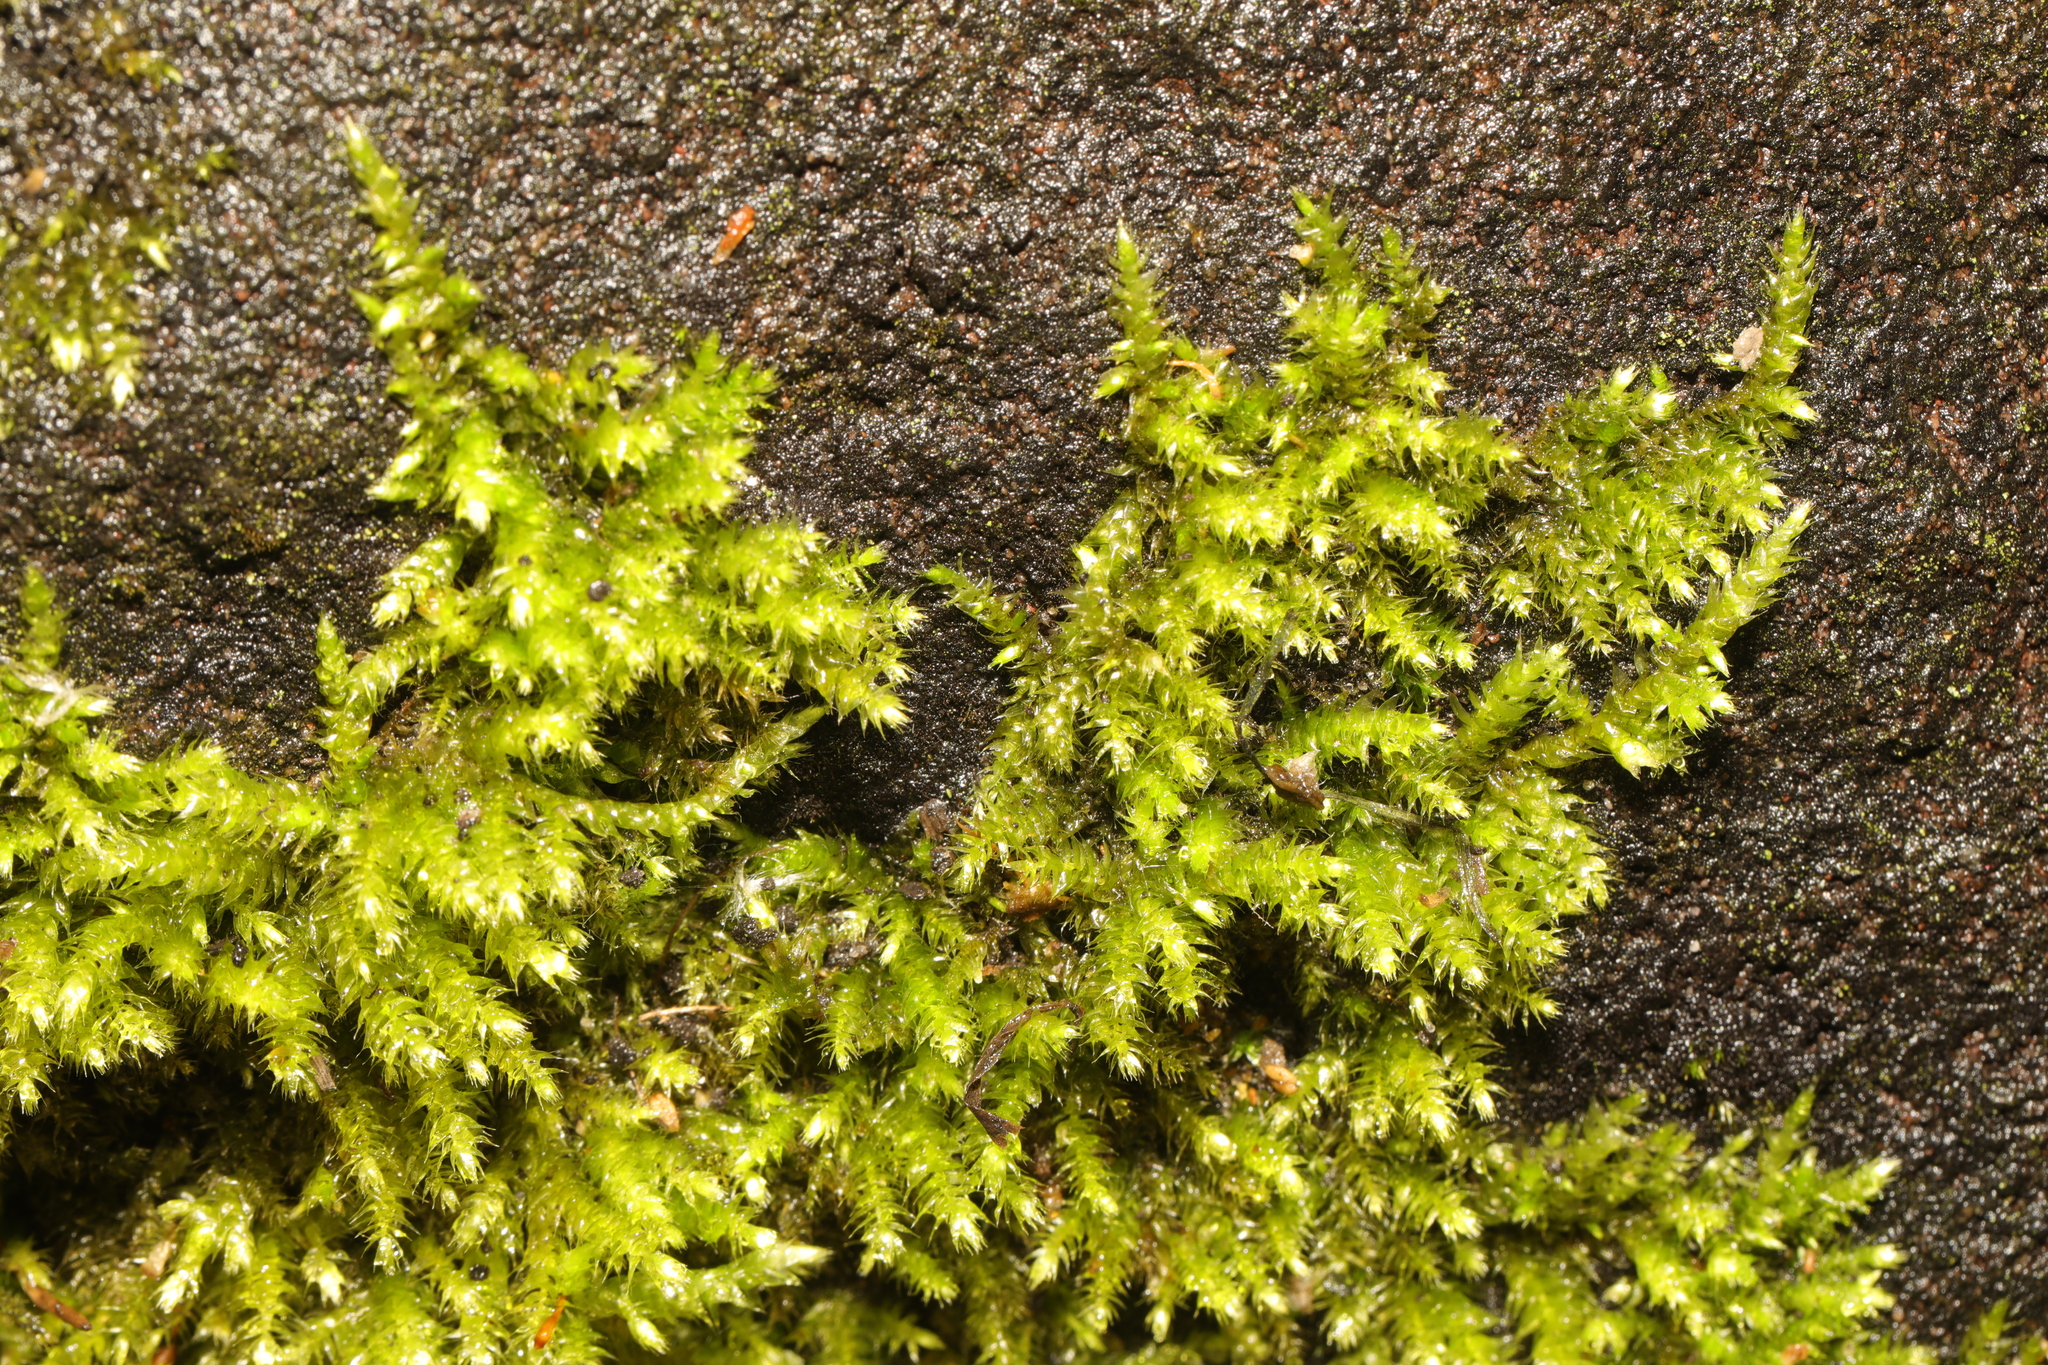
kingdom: Plantae
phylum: Bryophyta
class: Bryopsida
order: Hypnales
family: Brachytheciaceae
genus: Brachythecium
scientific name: Brachythecium rutabulum
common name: Rough-stalked feather-moss
